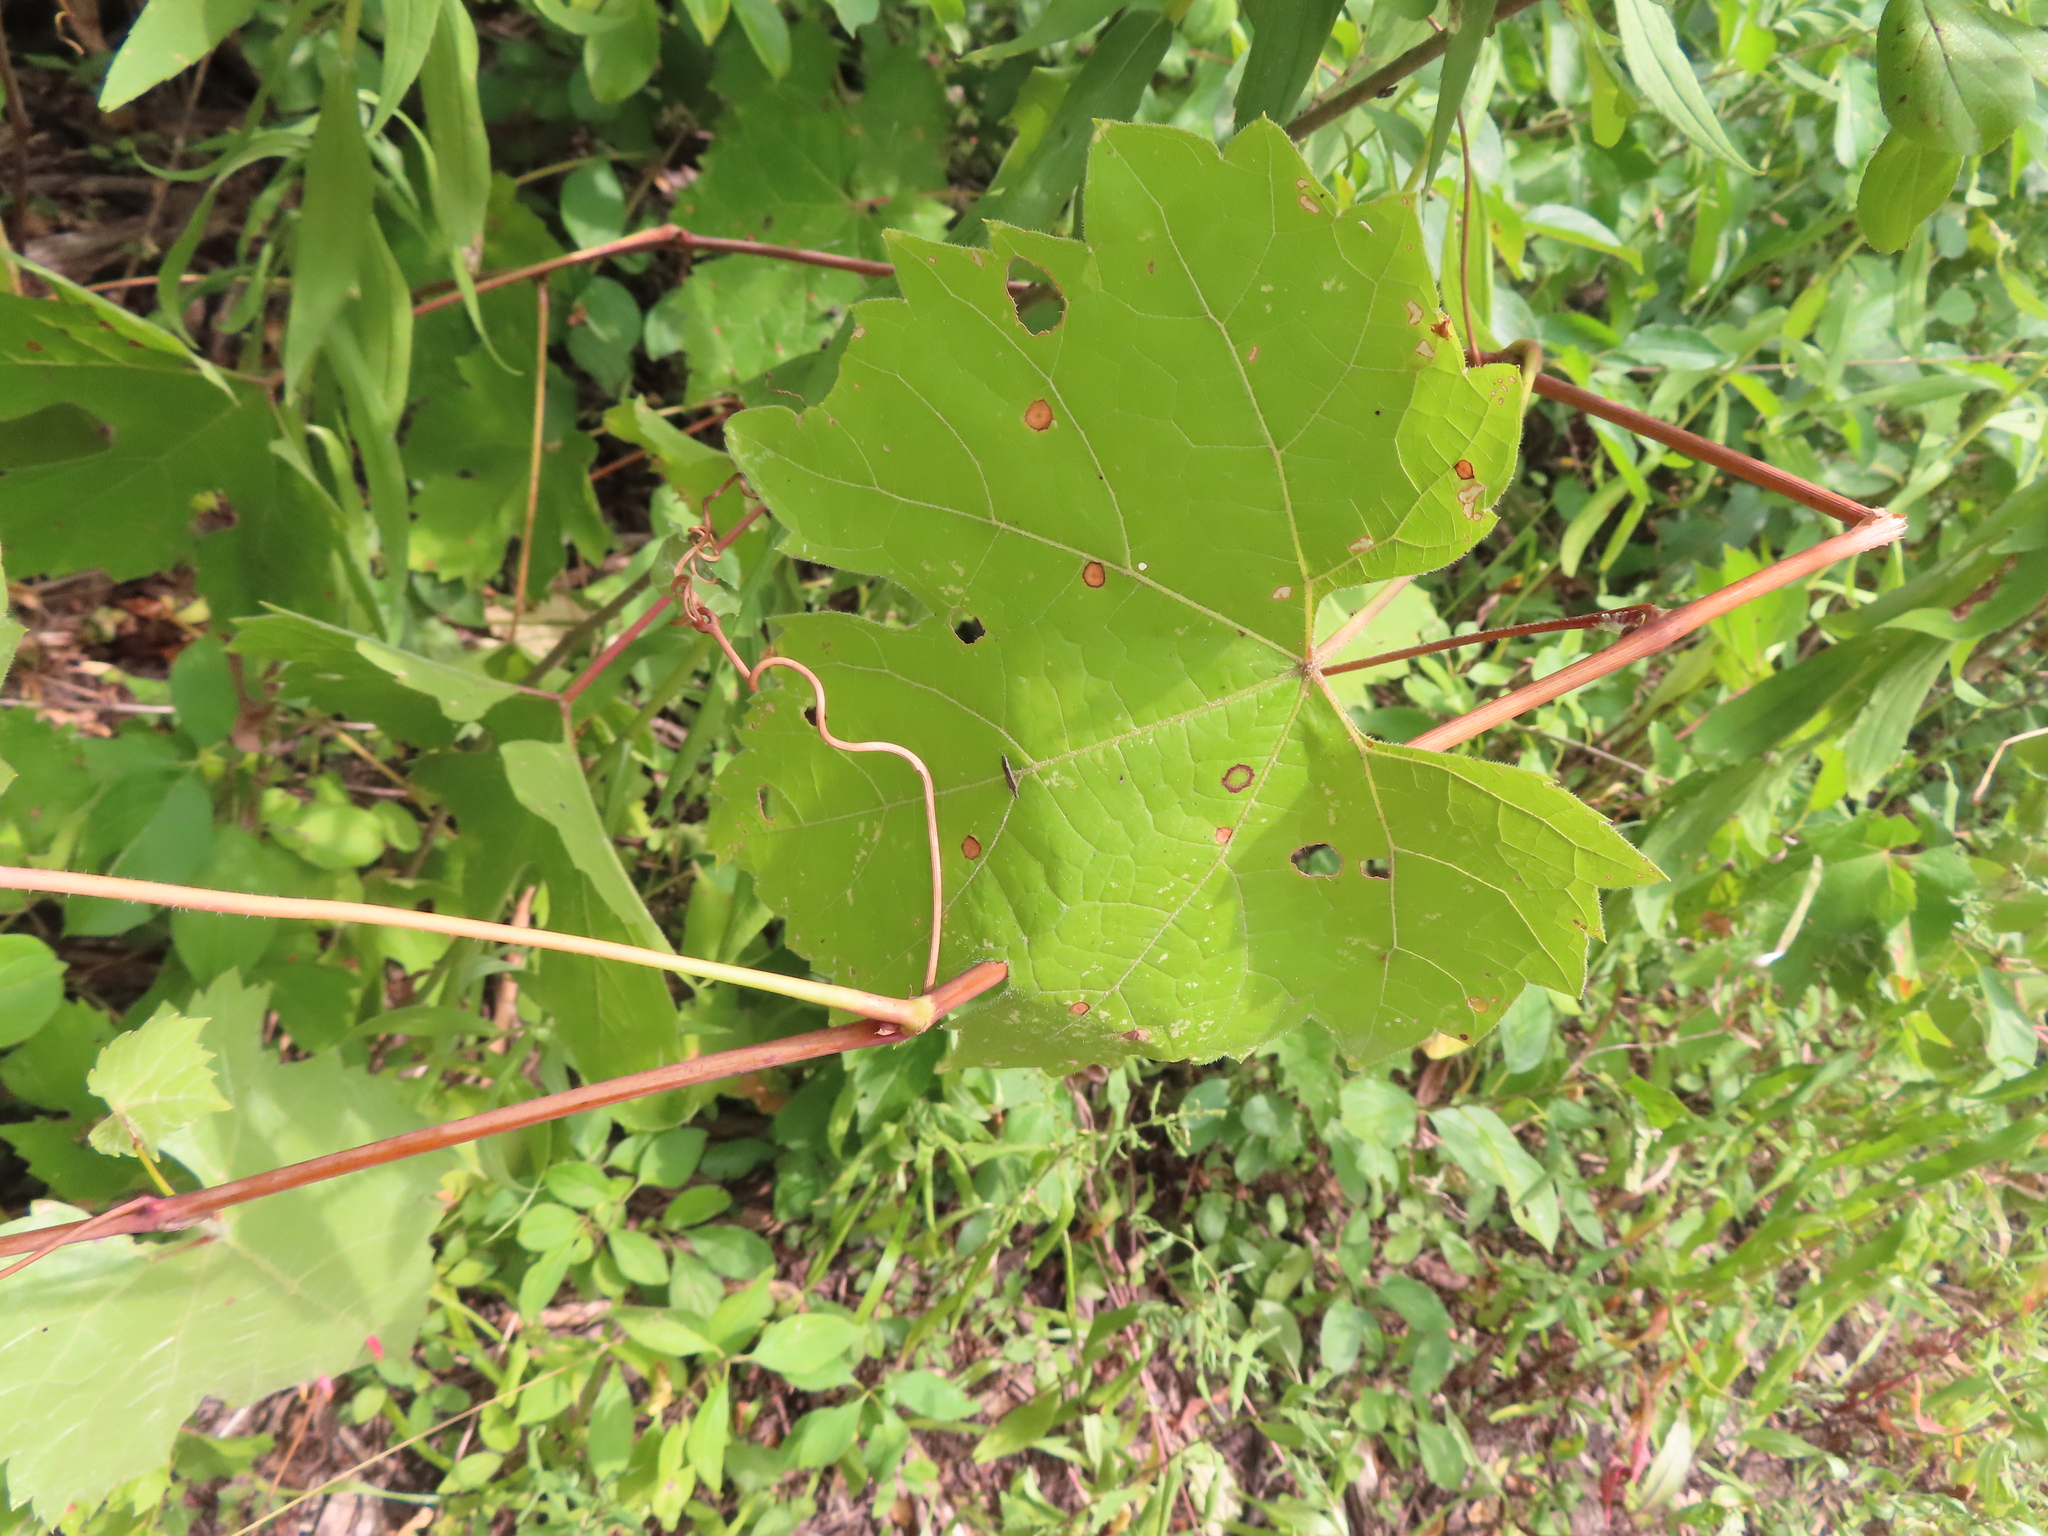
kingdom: Animalia
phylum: Arthropoda
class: Insecta
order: Diptera
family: Cecidomyiidae
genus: Ampelomyia
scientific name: Ampelomyia viticola
